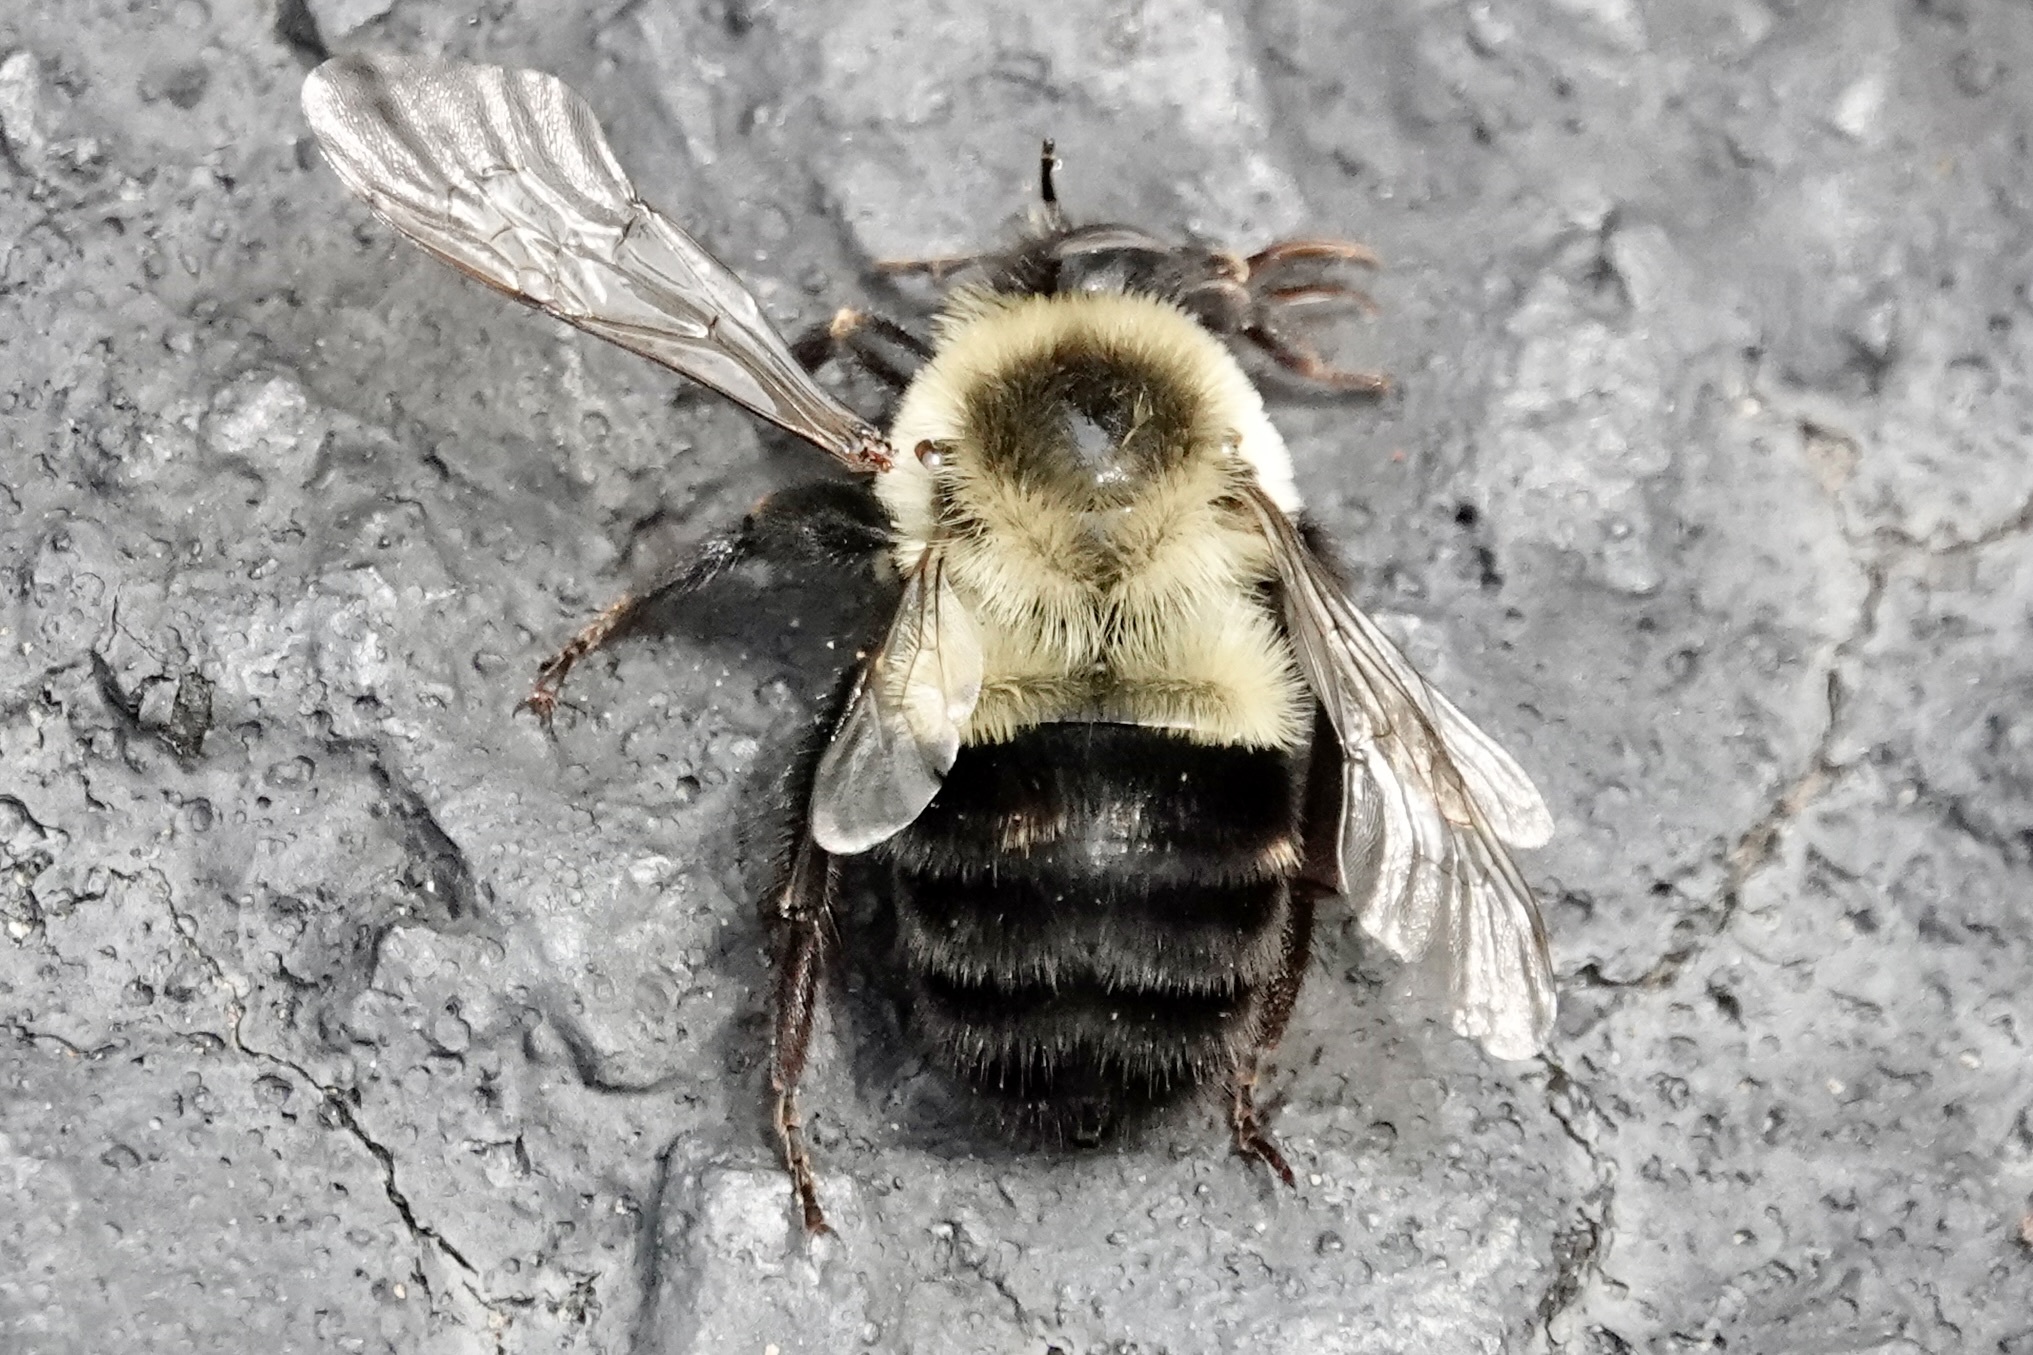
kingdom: Animalia
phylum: Arthropoda
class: Insecta
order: Hymenoptera
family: Apidae
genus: Bombus
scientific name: Bombus impatiens
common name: Common eastern bumble bee
